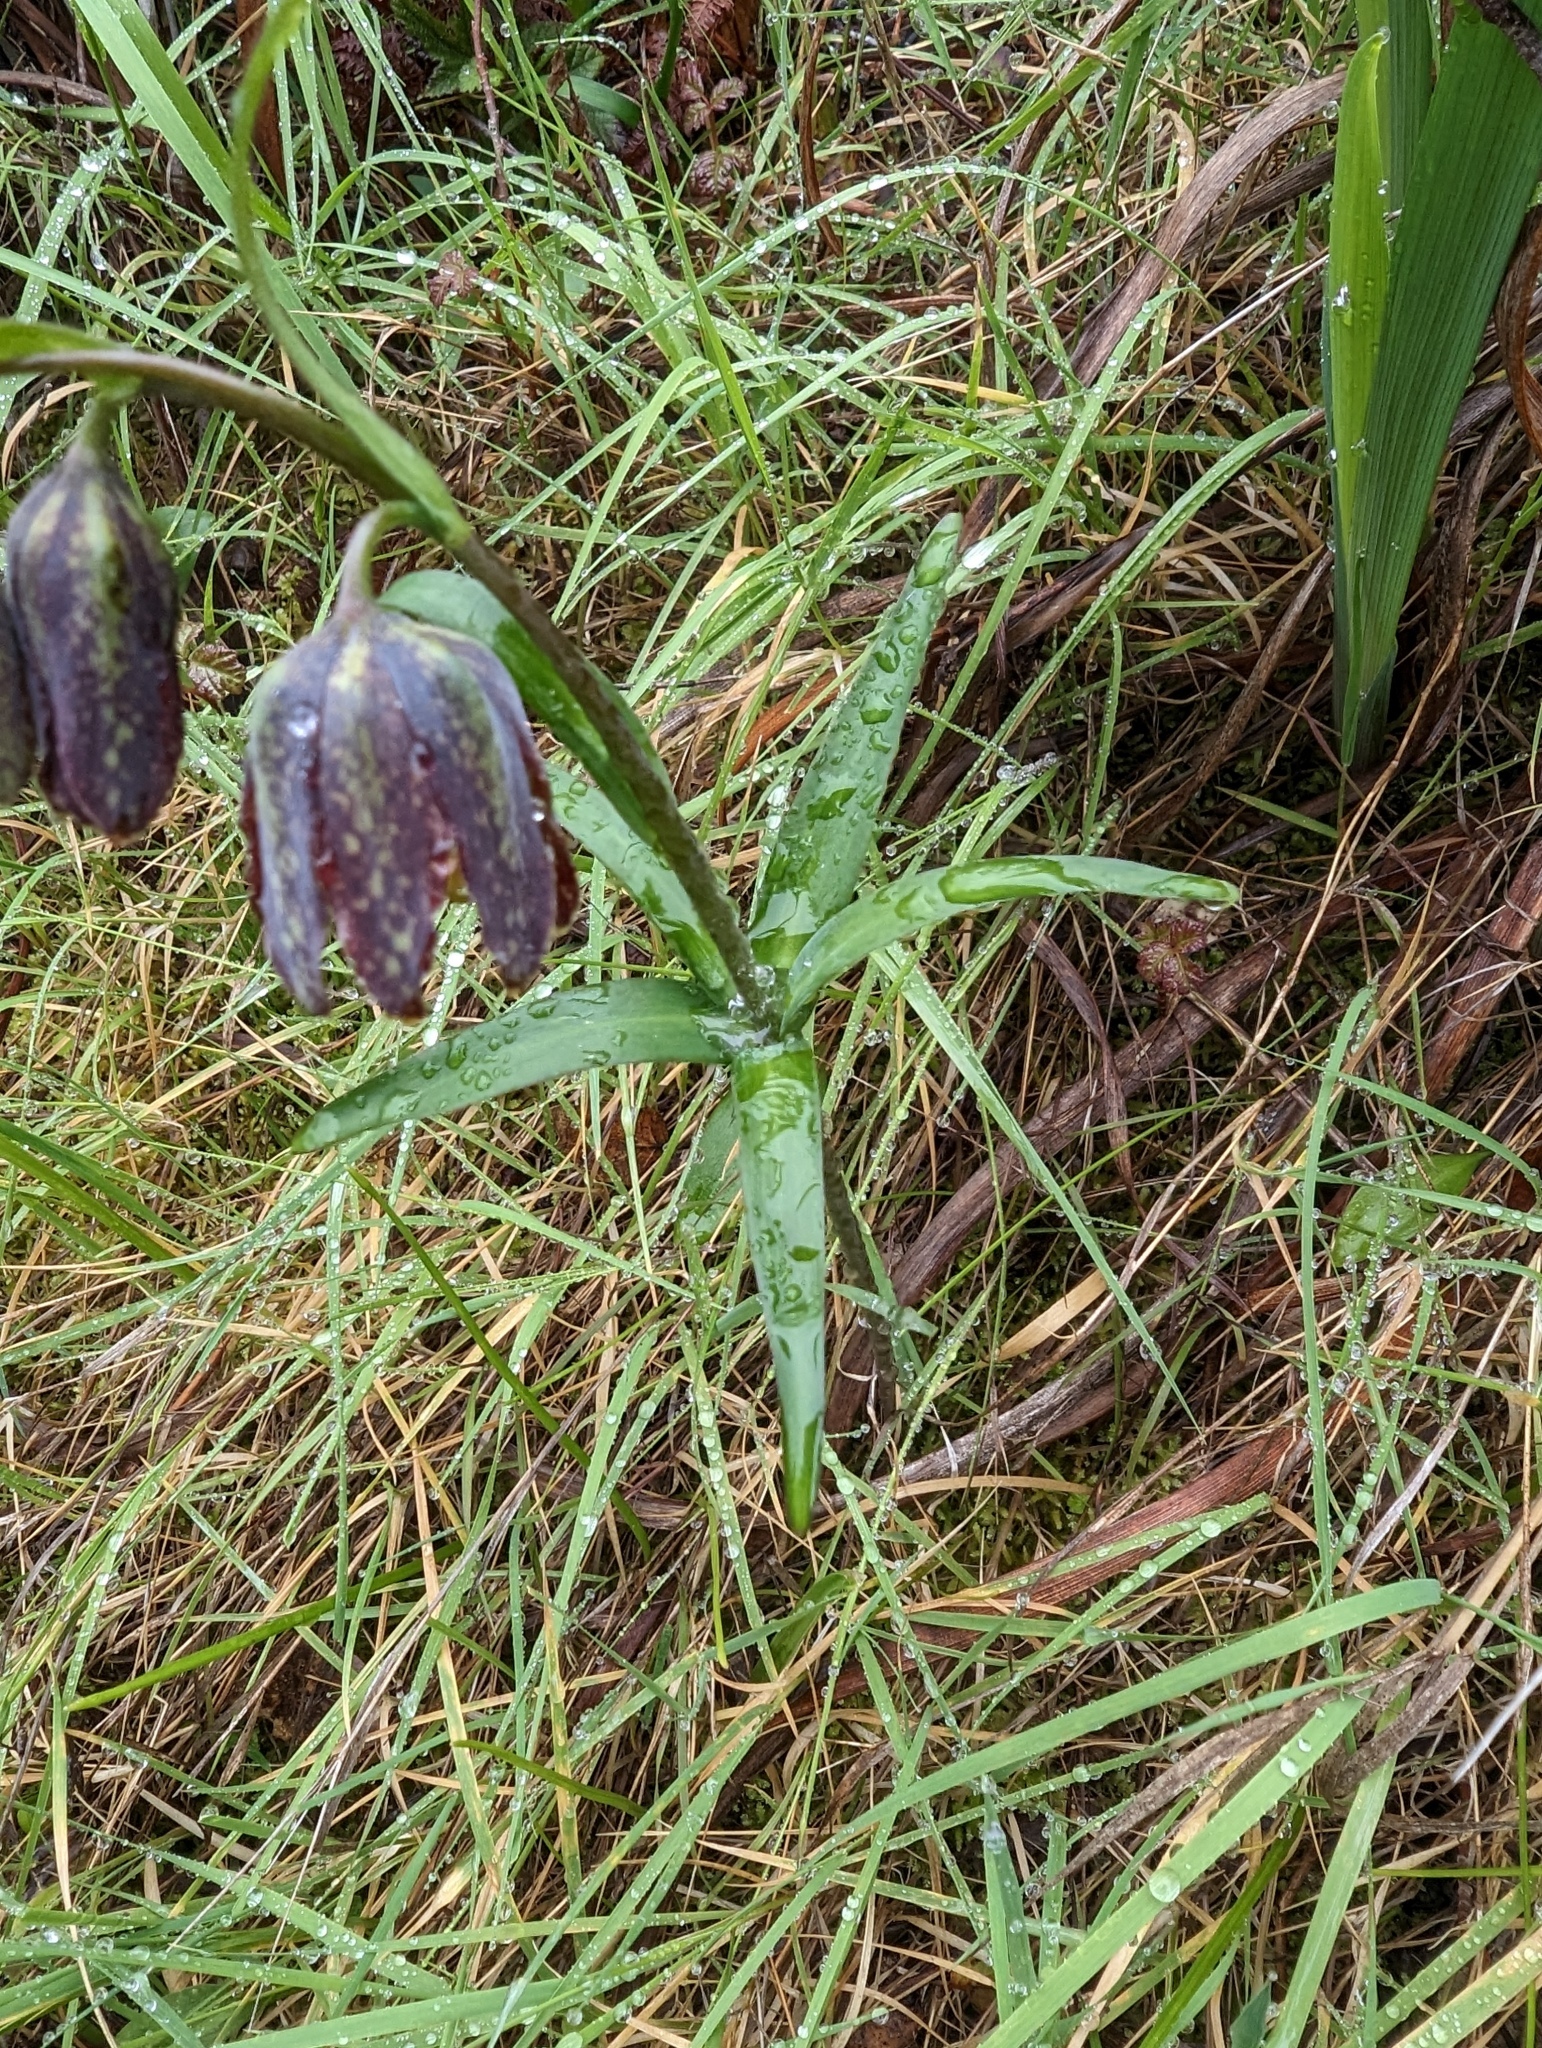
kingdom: Plantae
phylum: Tracheophyta
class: Liliopsida
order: Liliales
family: Liliaceae
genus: Fritillaria
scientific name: Fritillaria affinis
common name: Ojai fritillary
